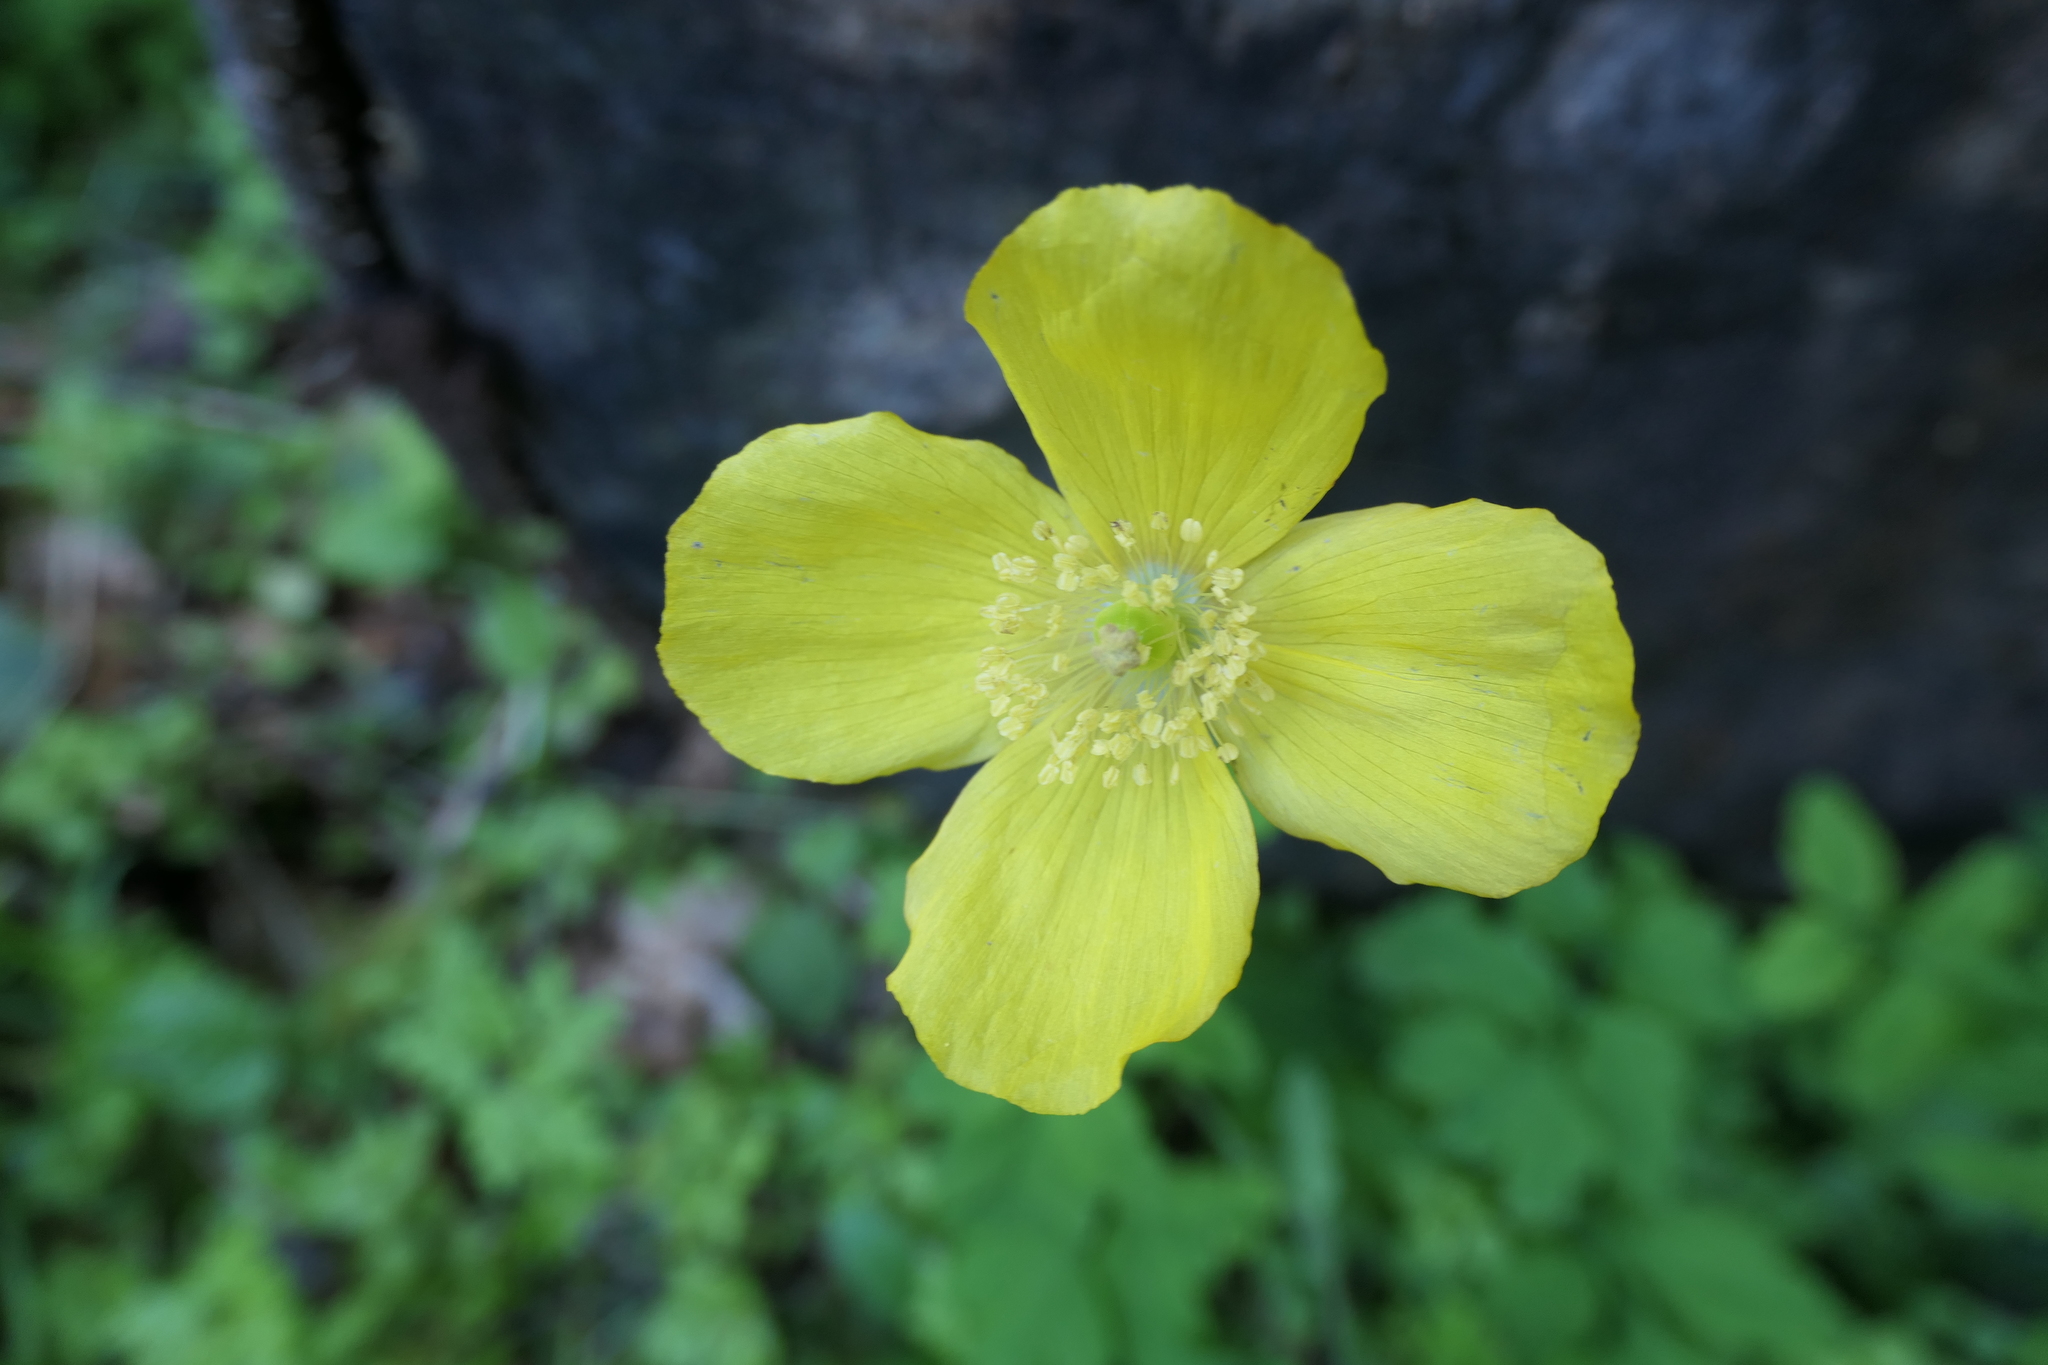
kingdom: Plantae
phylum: Tracheophyta
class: Magnoliopsida
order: Ranunculales
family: Papaveraceae
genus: Papaver
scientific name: Papaver cambricum
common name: Poppy
